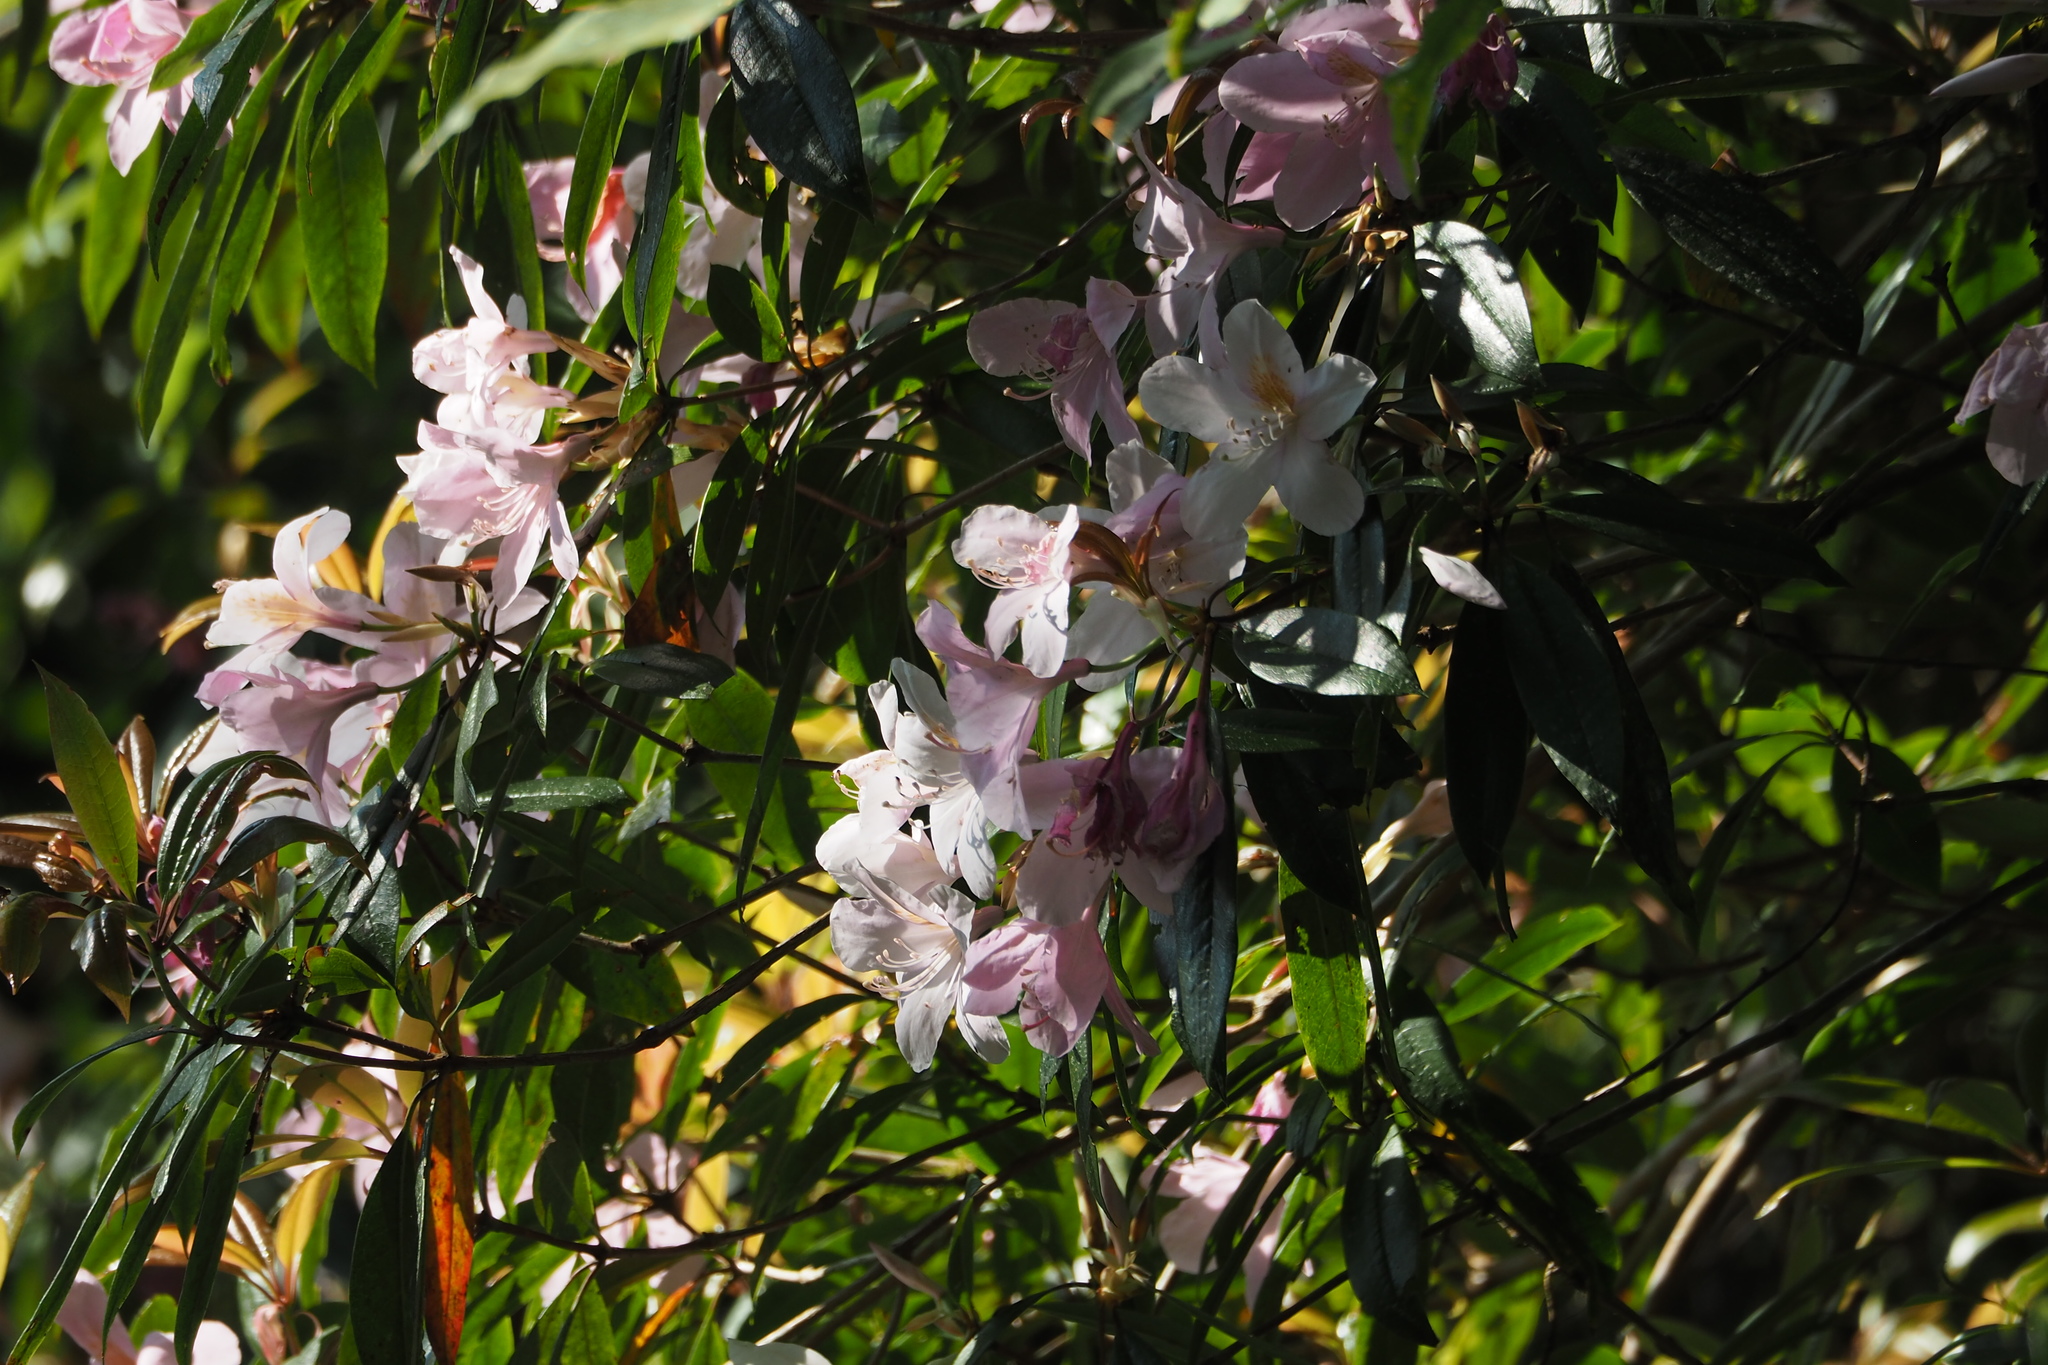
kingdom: Plantae
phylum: Tracheophyta
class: Magnoliopsida
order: Ericales
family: Ericaceae
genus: Rhododendron
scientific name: Rhododendron latoucheae
